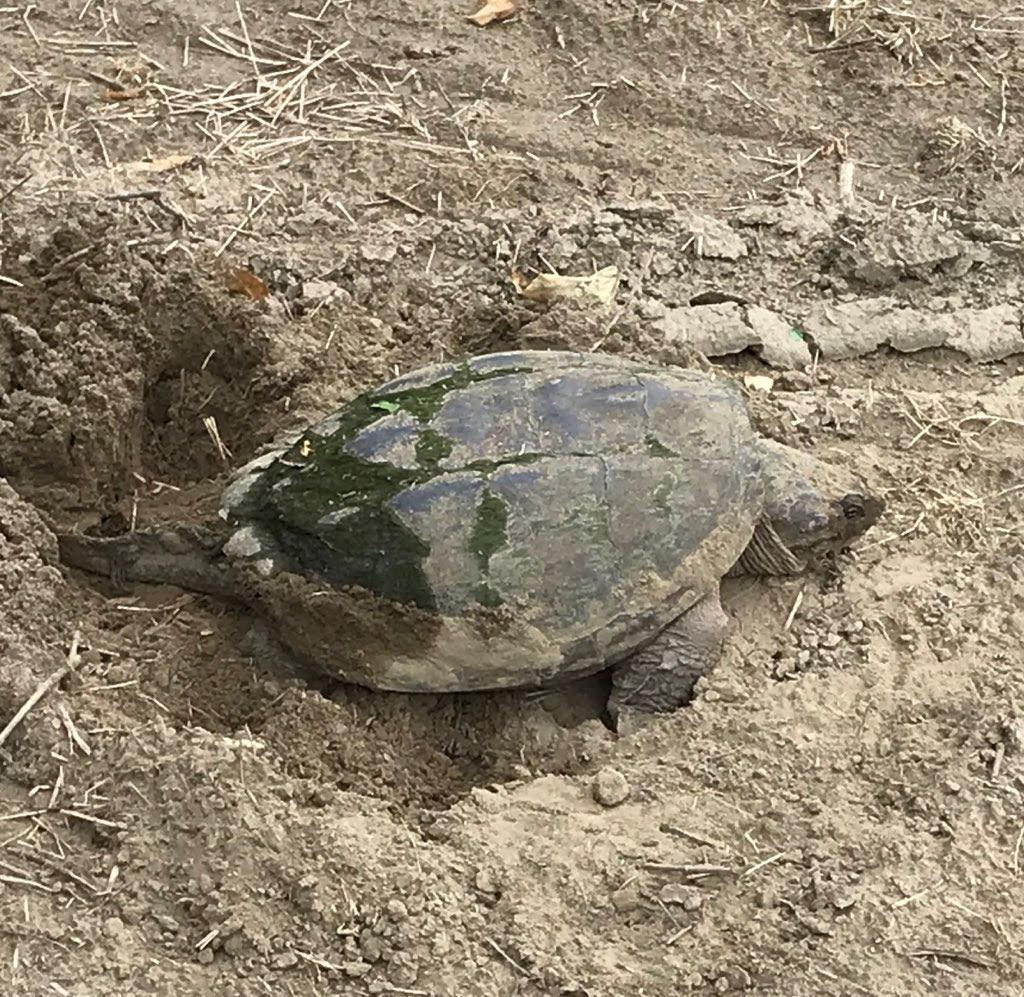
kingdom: Animalia
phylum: Chordata
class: Testudines
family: Chelydridae
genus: Chelydra
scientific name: Chelydra serpentina
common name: Common snapping turtle
